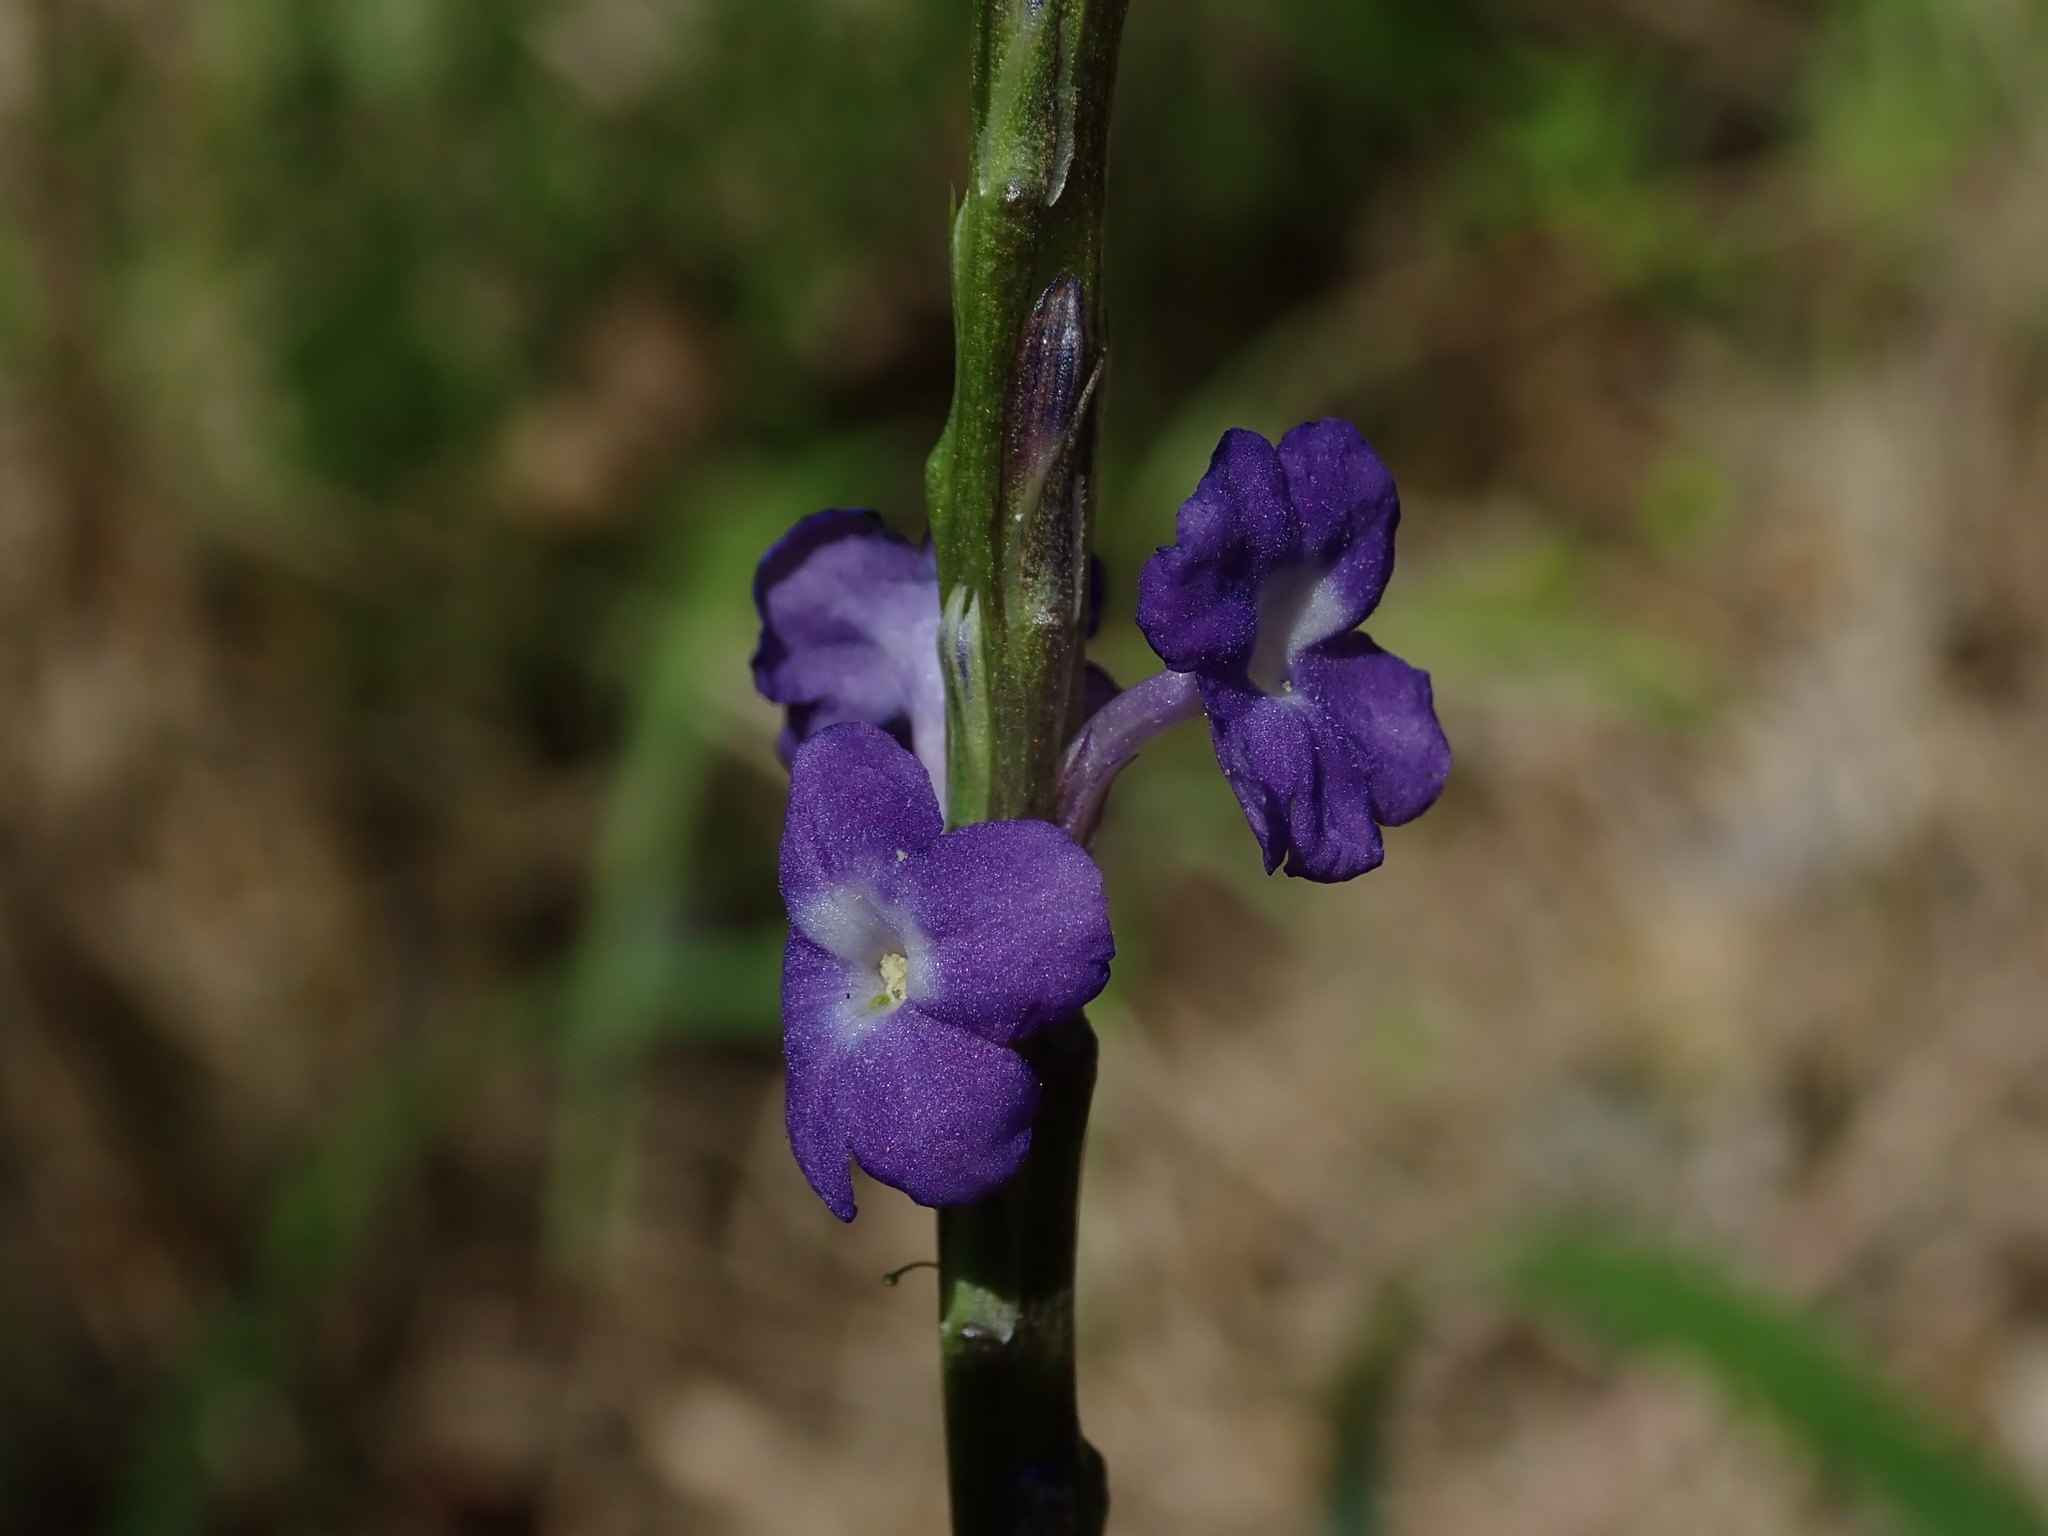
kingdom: Plantae
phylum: Tracheophyta
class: Magnoliopsida
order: Lamiales
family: Verbenaceae
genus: Stachytarpheta
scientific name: Stachytarpheta jamaicensis
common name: Light-blue snakeweed
